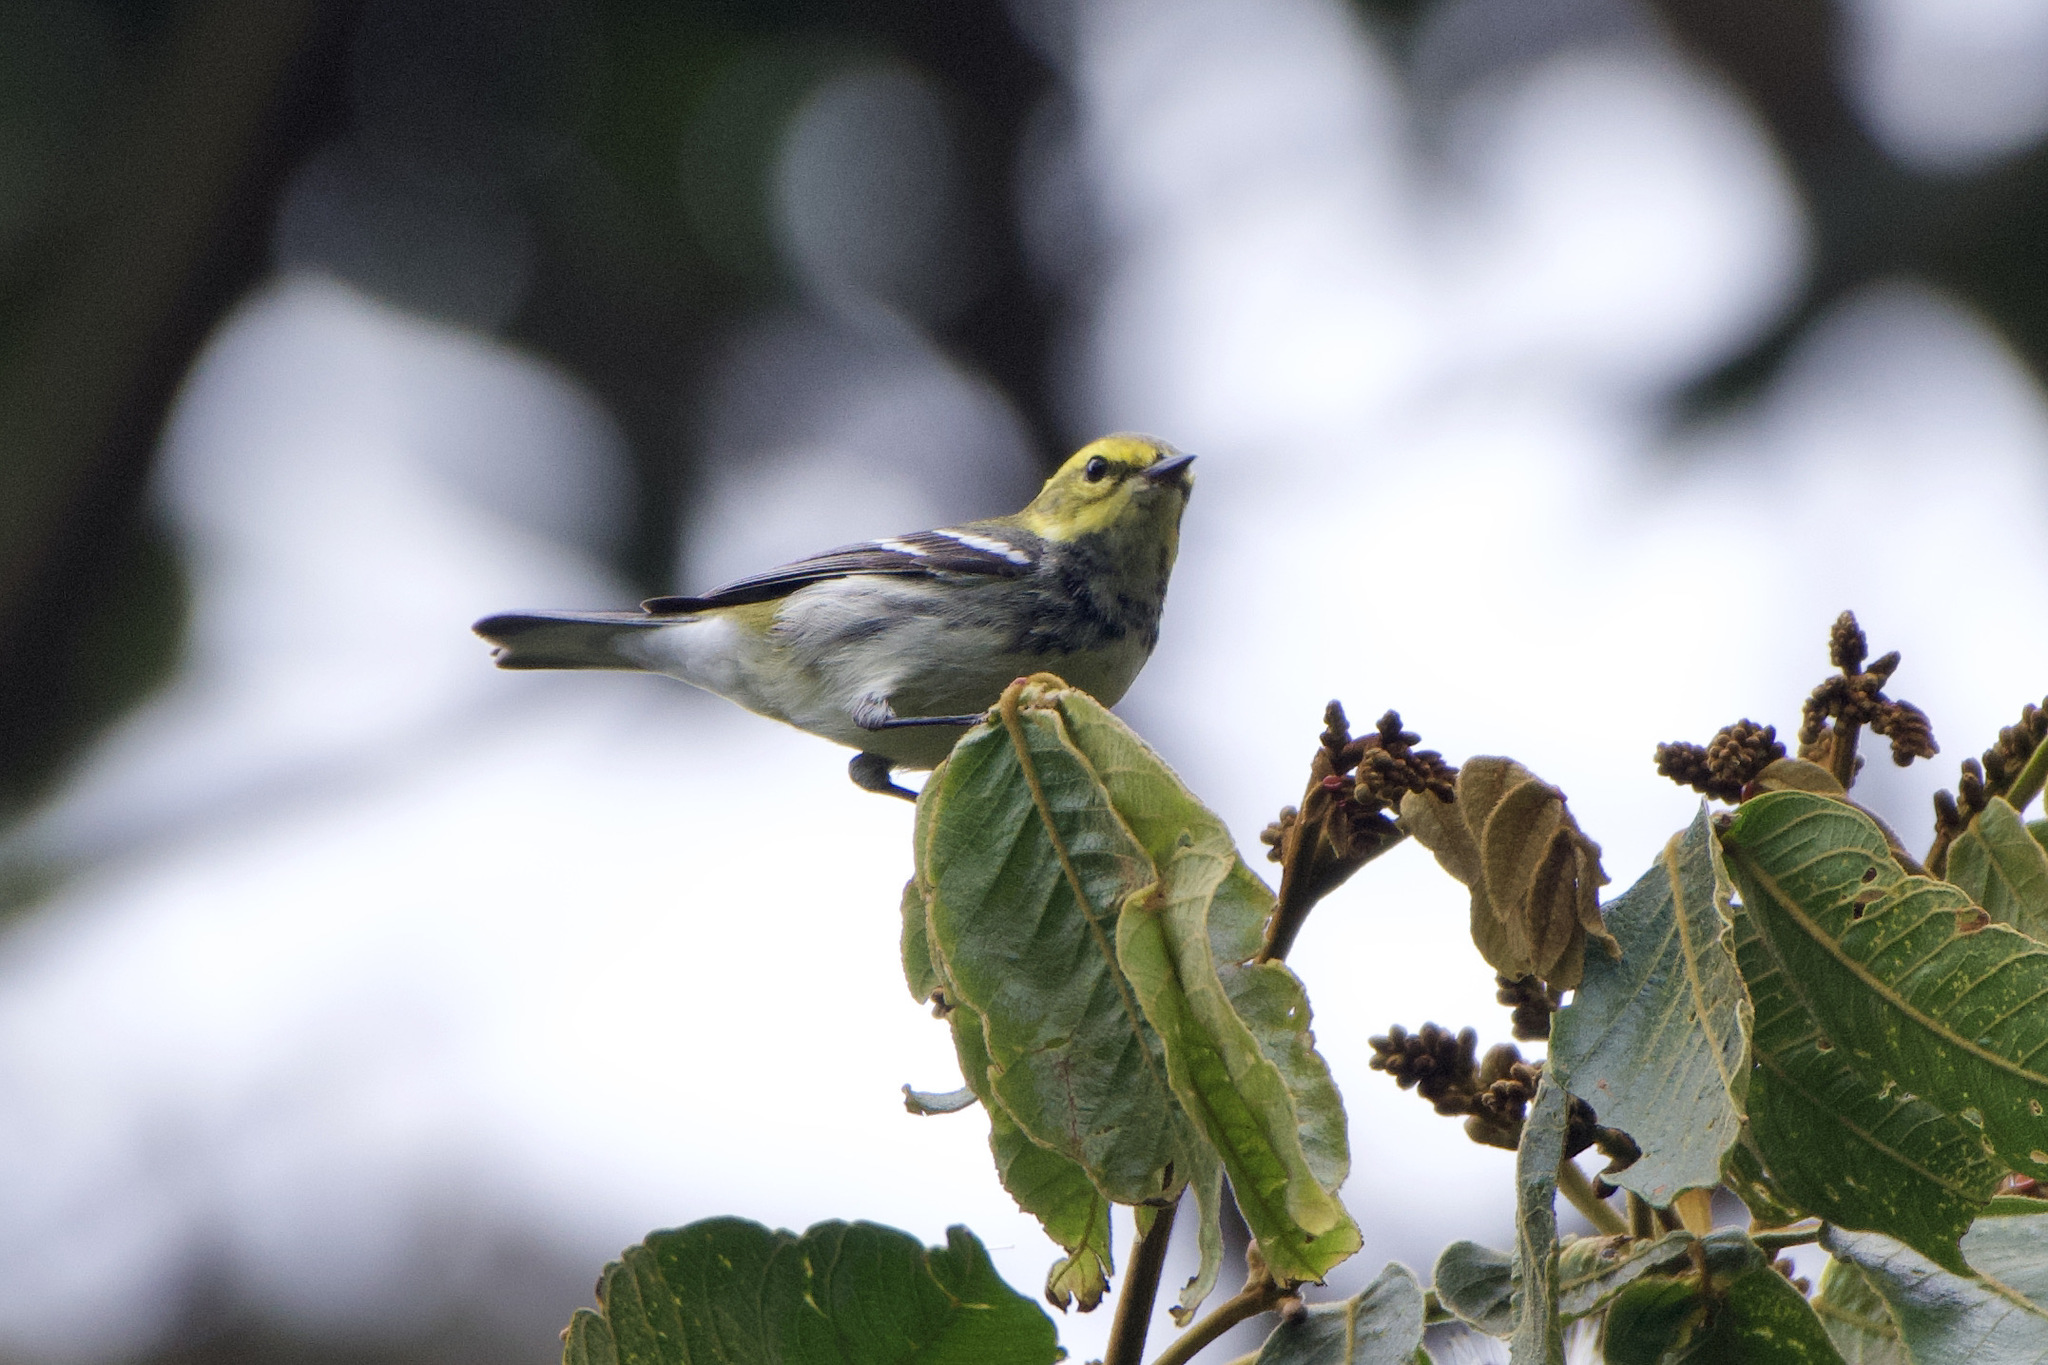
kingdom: Animalia
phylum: Chordata
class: Aves
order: Passeriformes
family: Parulidae
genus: Setophaga
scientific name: Setophaga virens
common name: Black-throated green warbler
